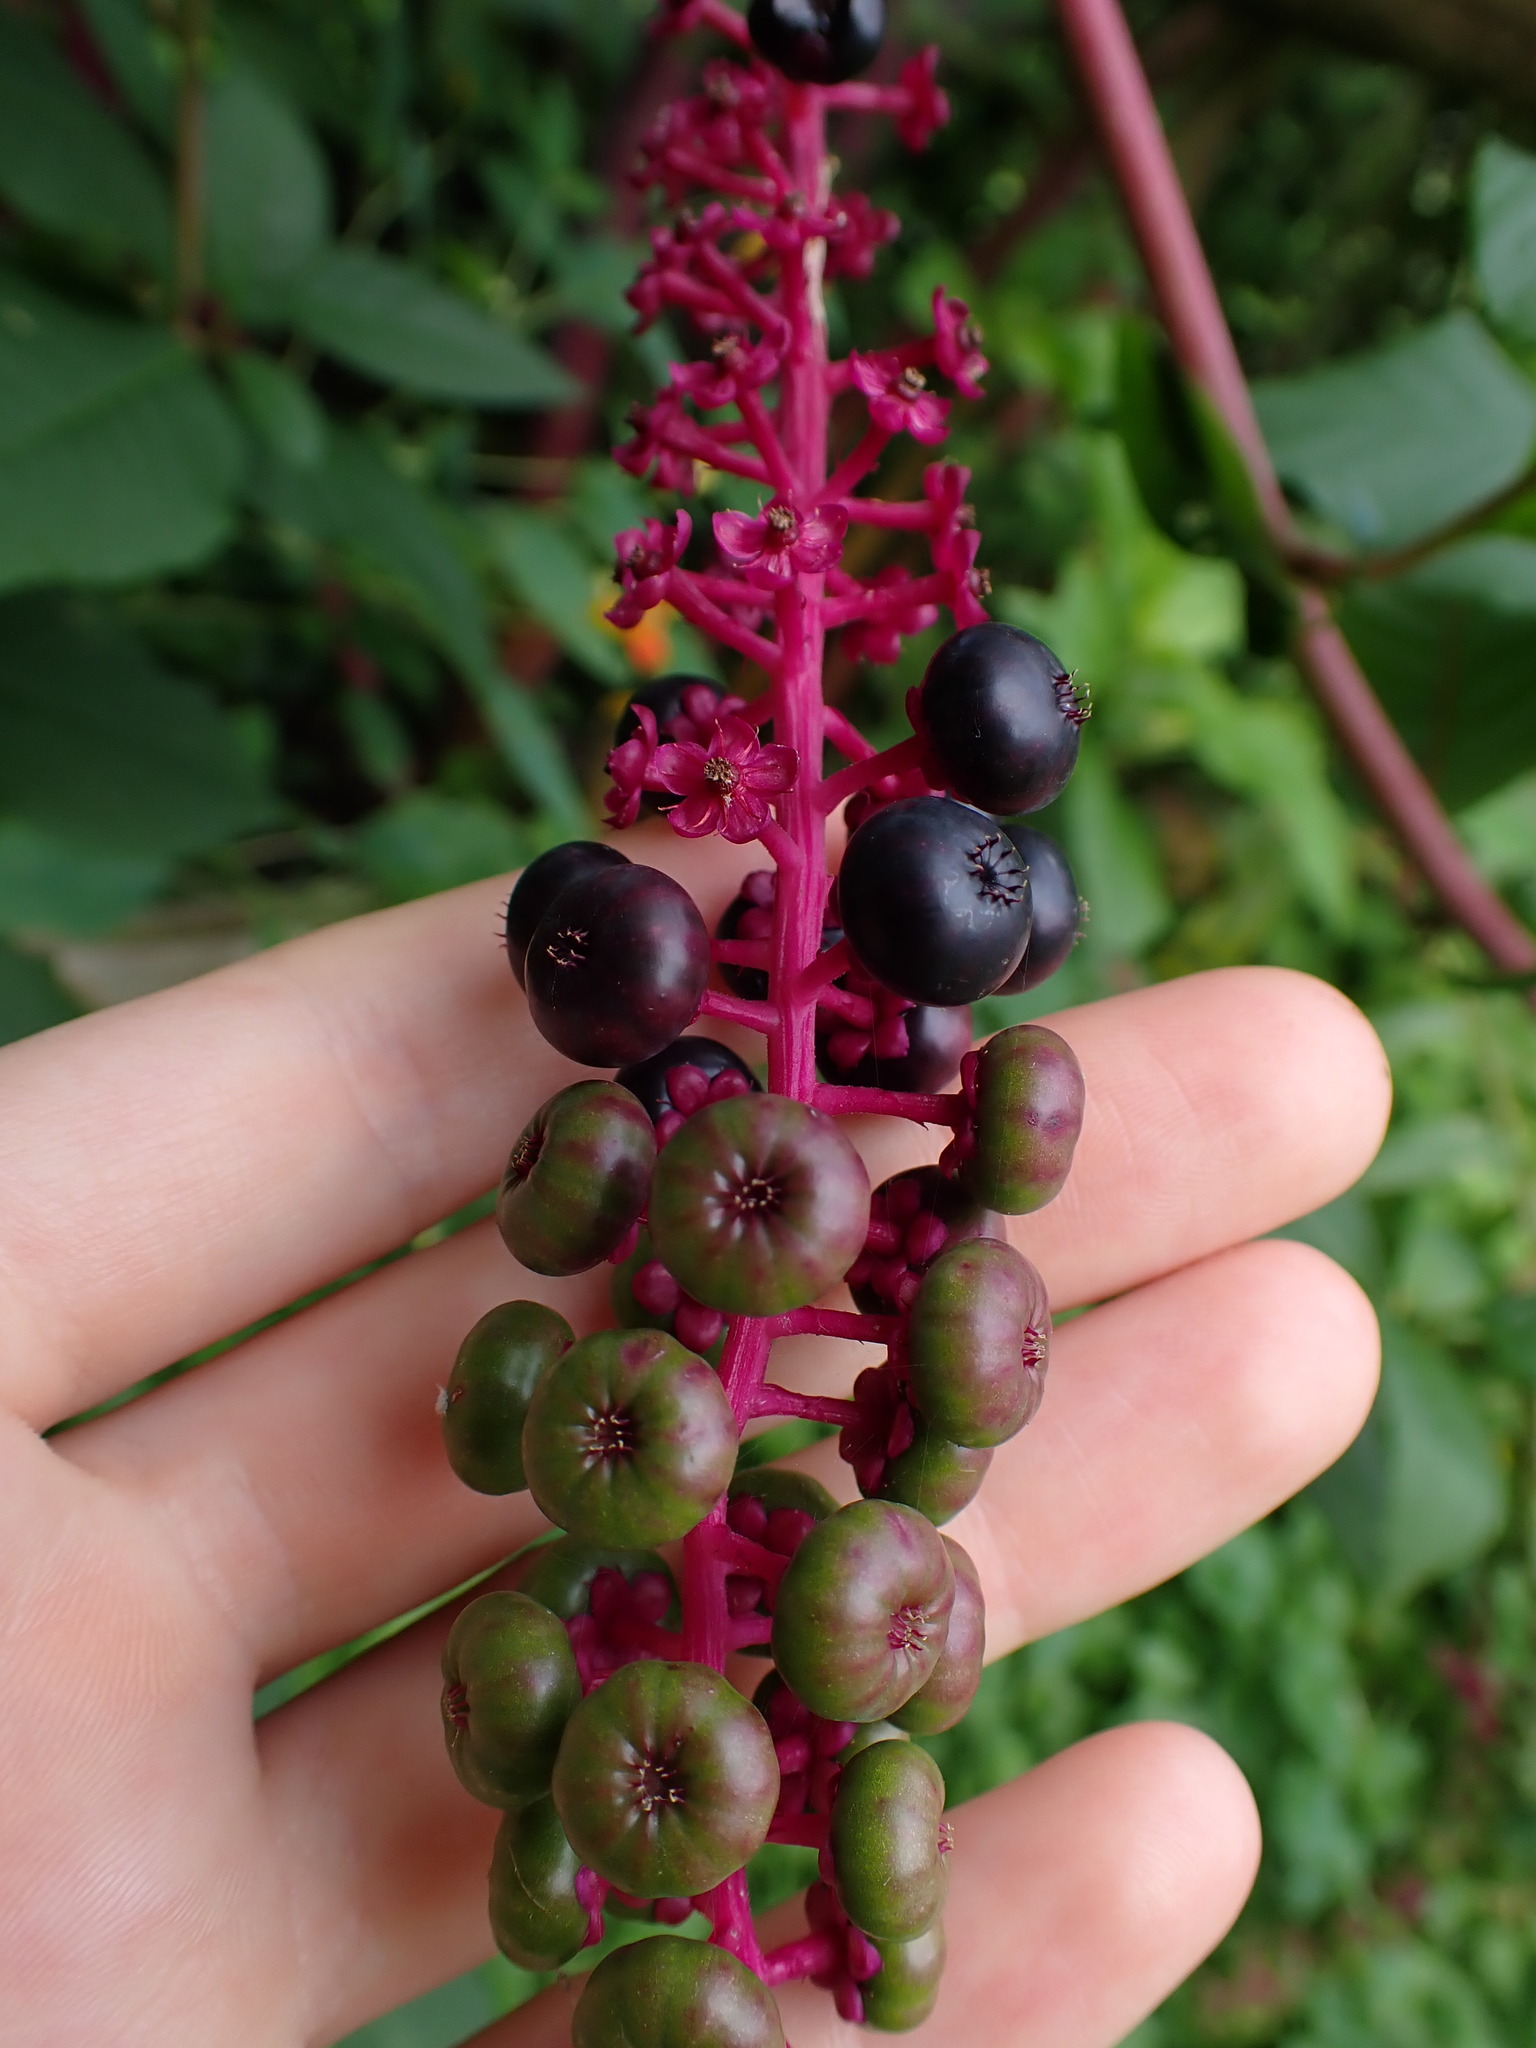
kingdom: Plantae
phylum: Tracheophyta
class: Magnoliopsida
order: Caryophyllales
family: Phytolaccaceae
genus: Phytolacca
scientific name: Phytolacca americana
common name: American pokeweed
